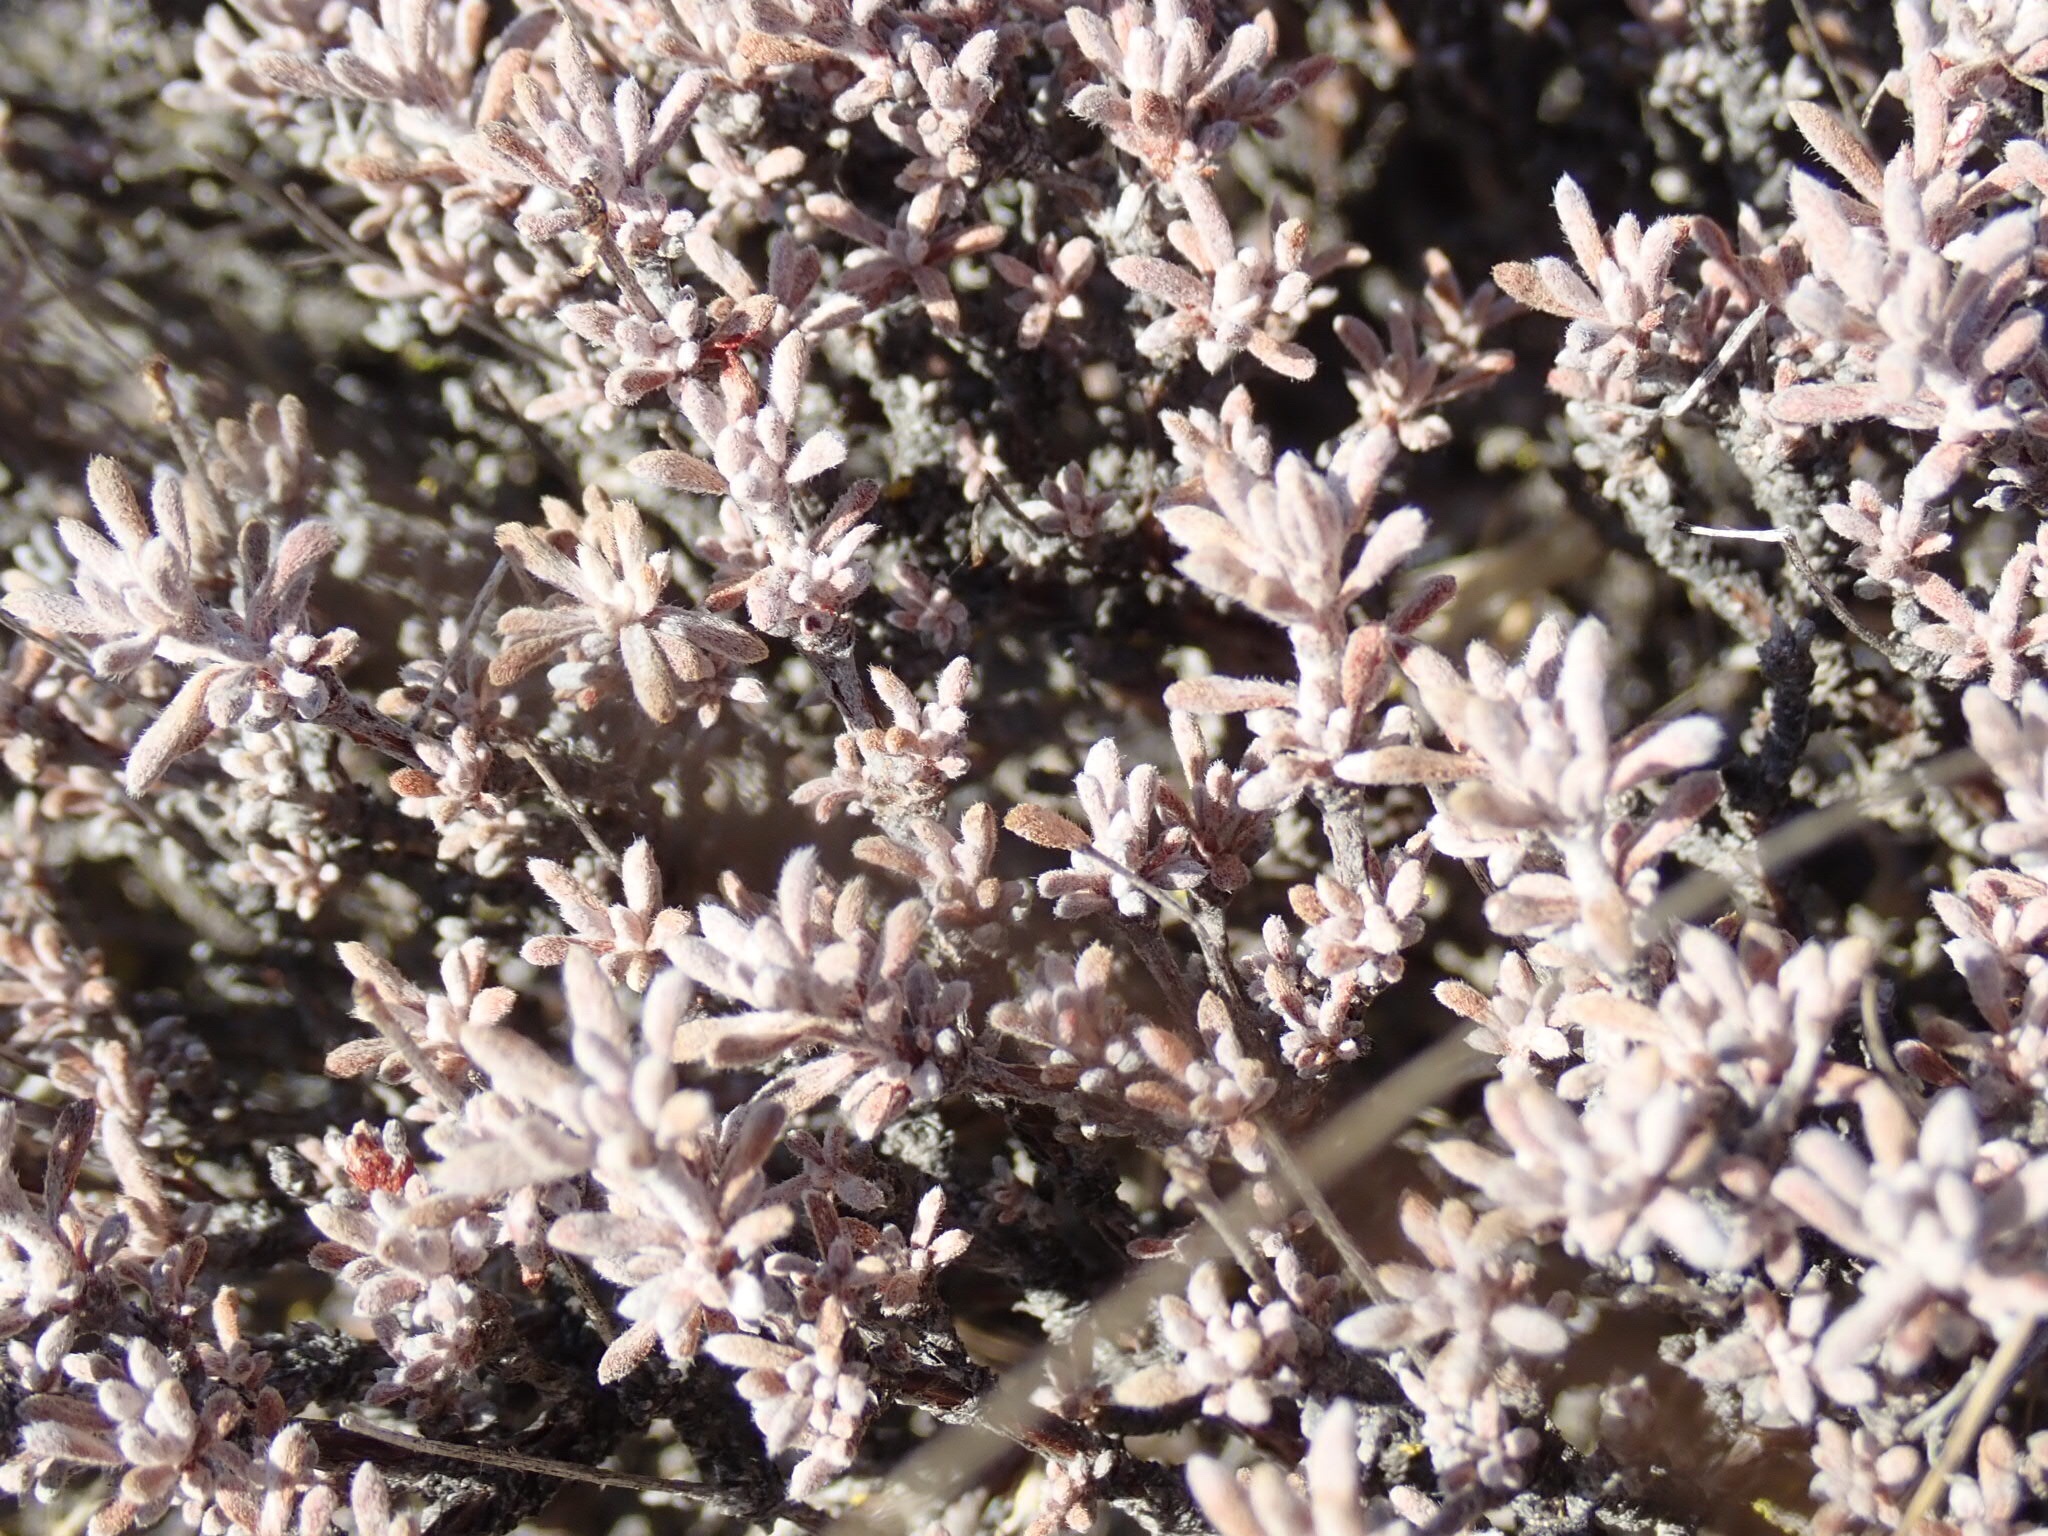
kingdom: Plantae
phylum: Tracheophyta
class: Magnoliopsida
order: Caryophyllales
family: Polygonaceae
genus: Eriogonum
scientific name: Eriogonum niveum
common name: Snow wild buckwheat
